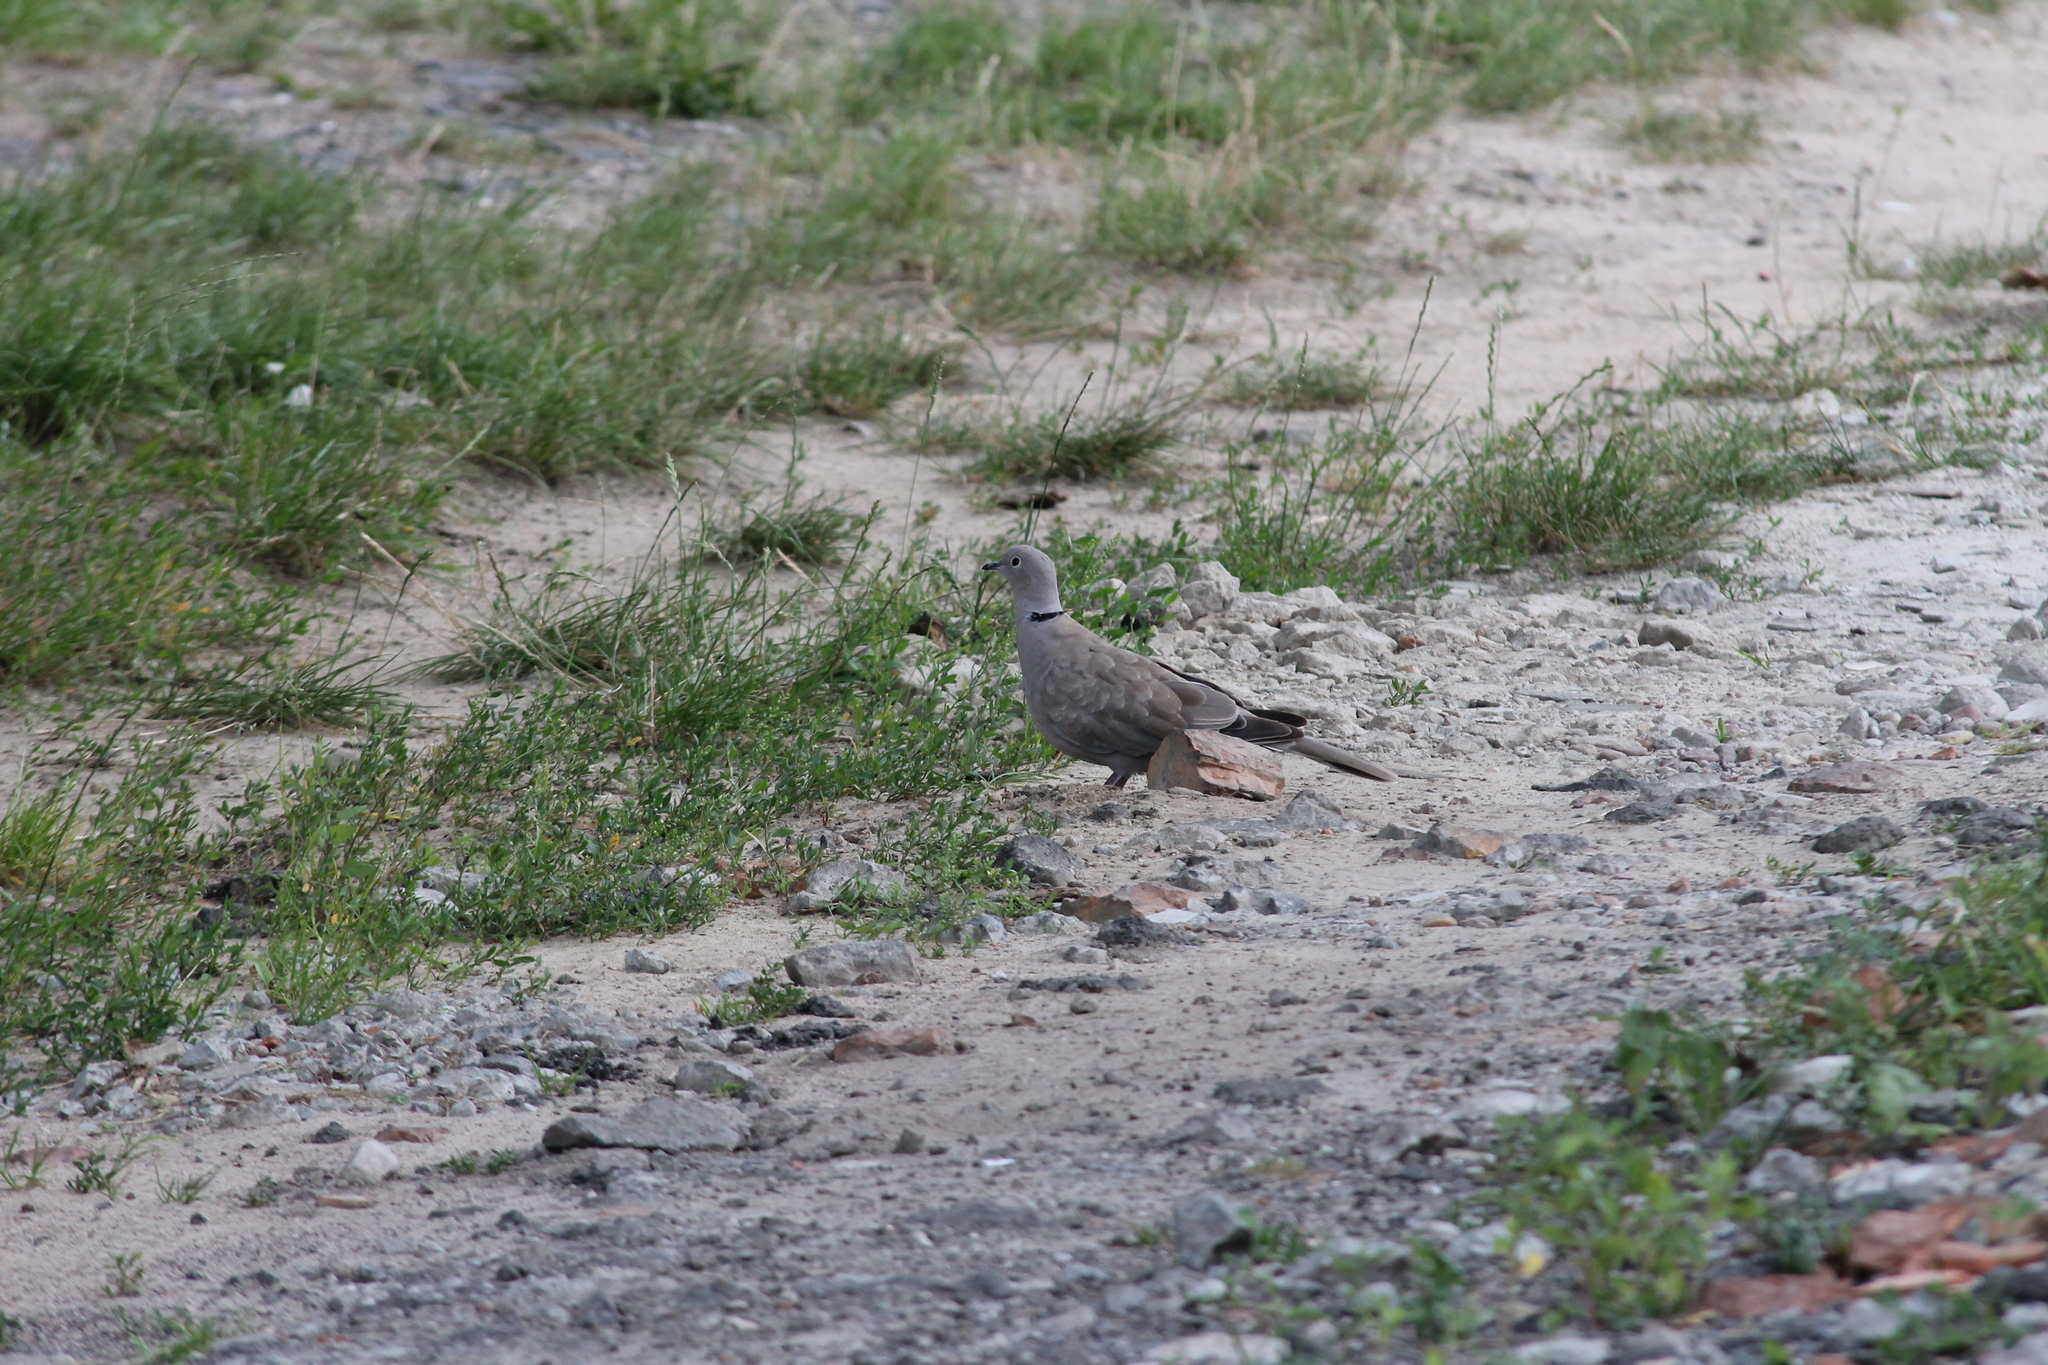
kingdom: Animalia
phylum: Chordata
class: Aves
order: Columbiformes
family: Columbidae
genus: Streptopelia
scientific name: Streptopelia decaocto
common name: Eurasian collared dove
